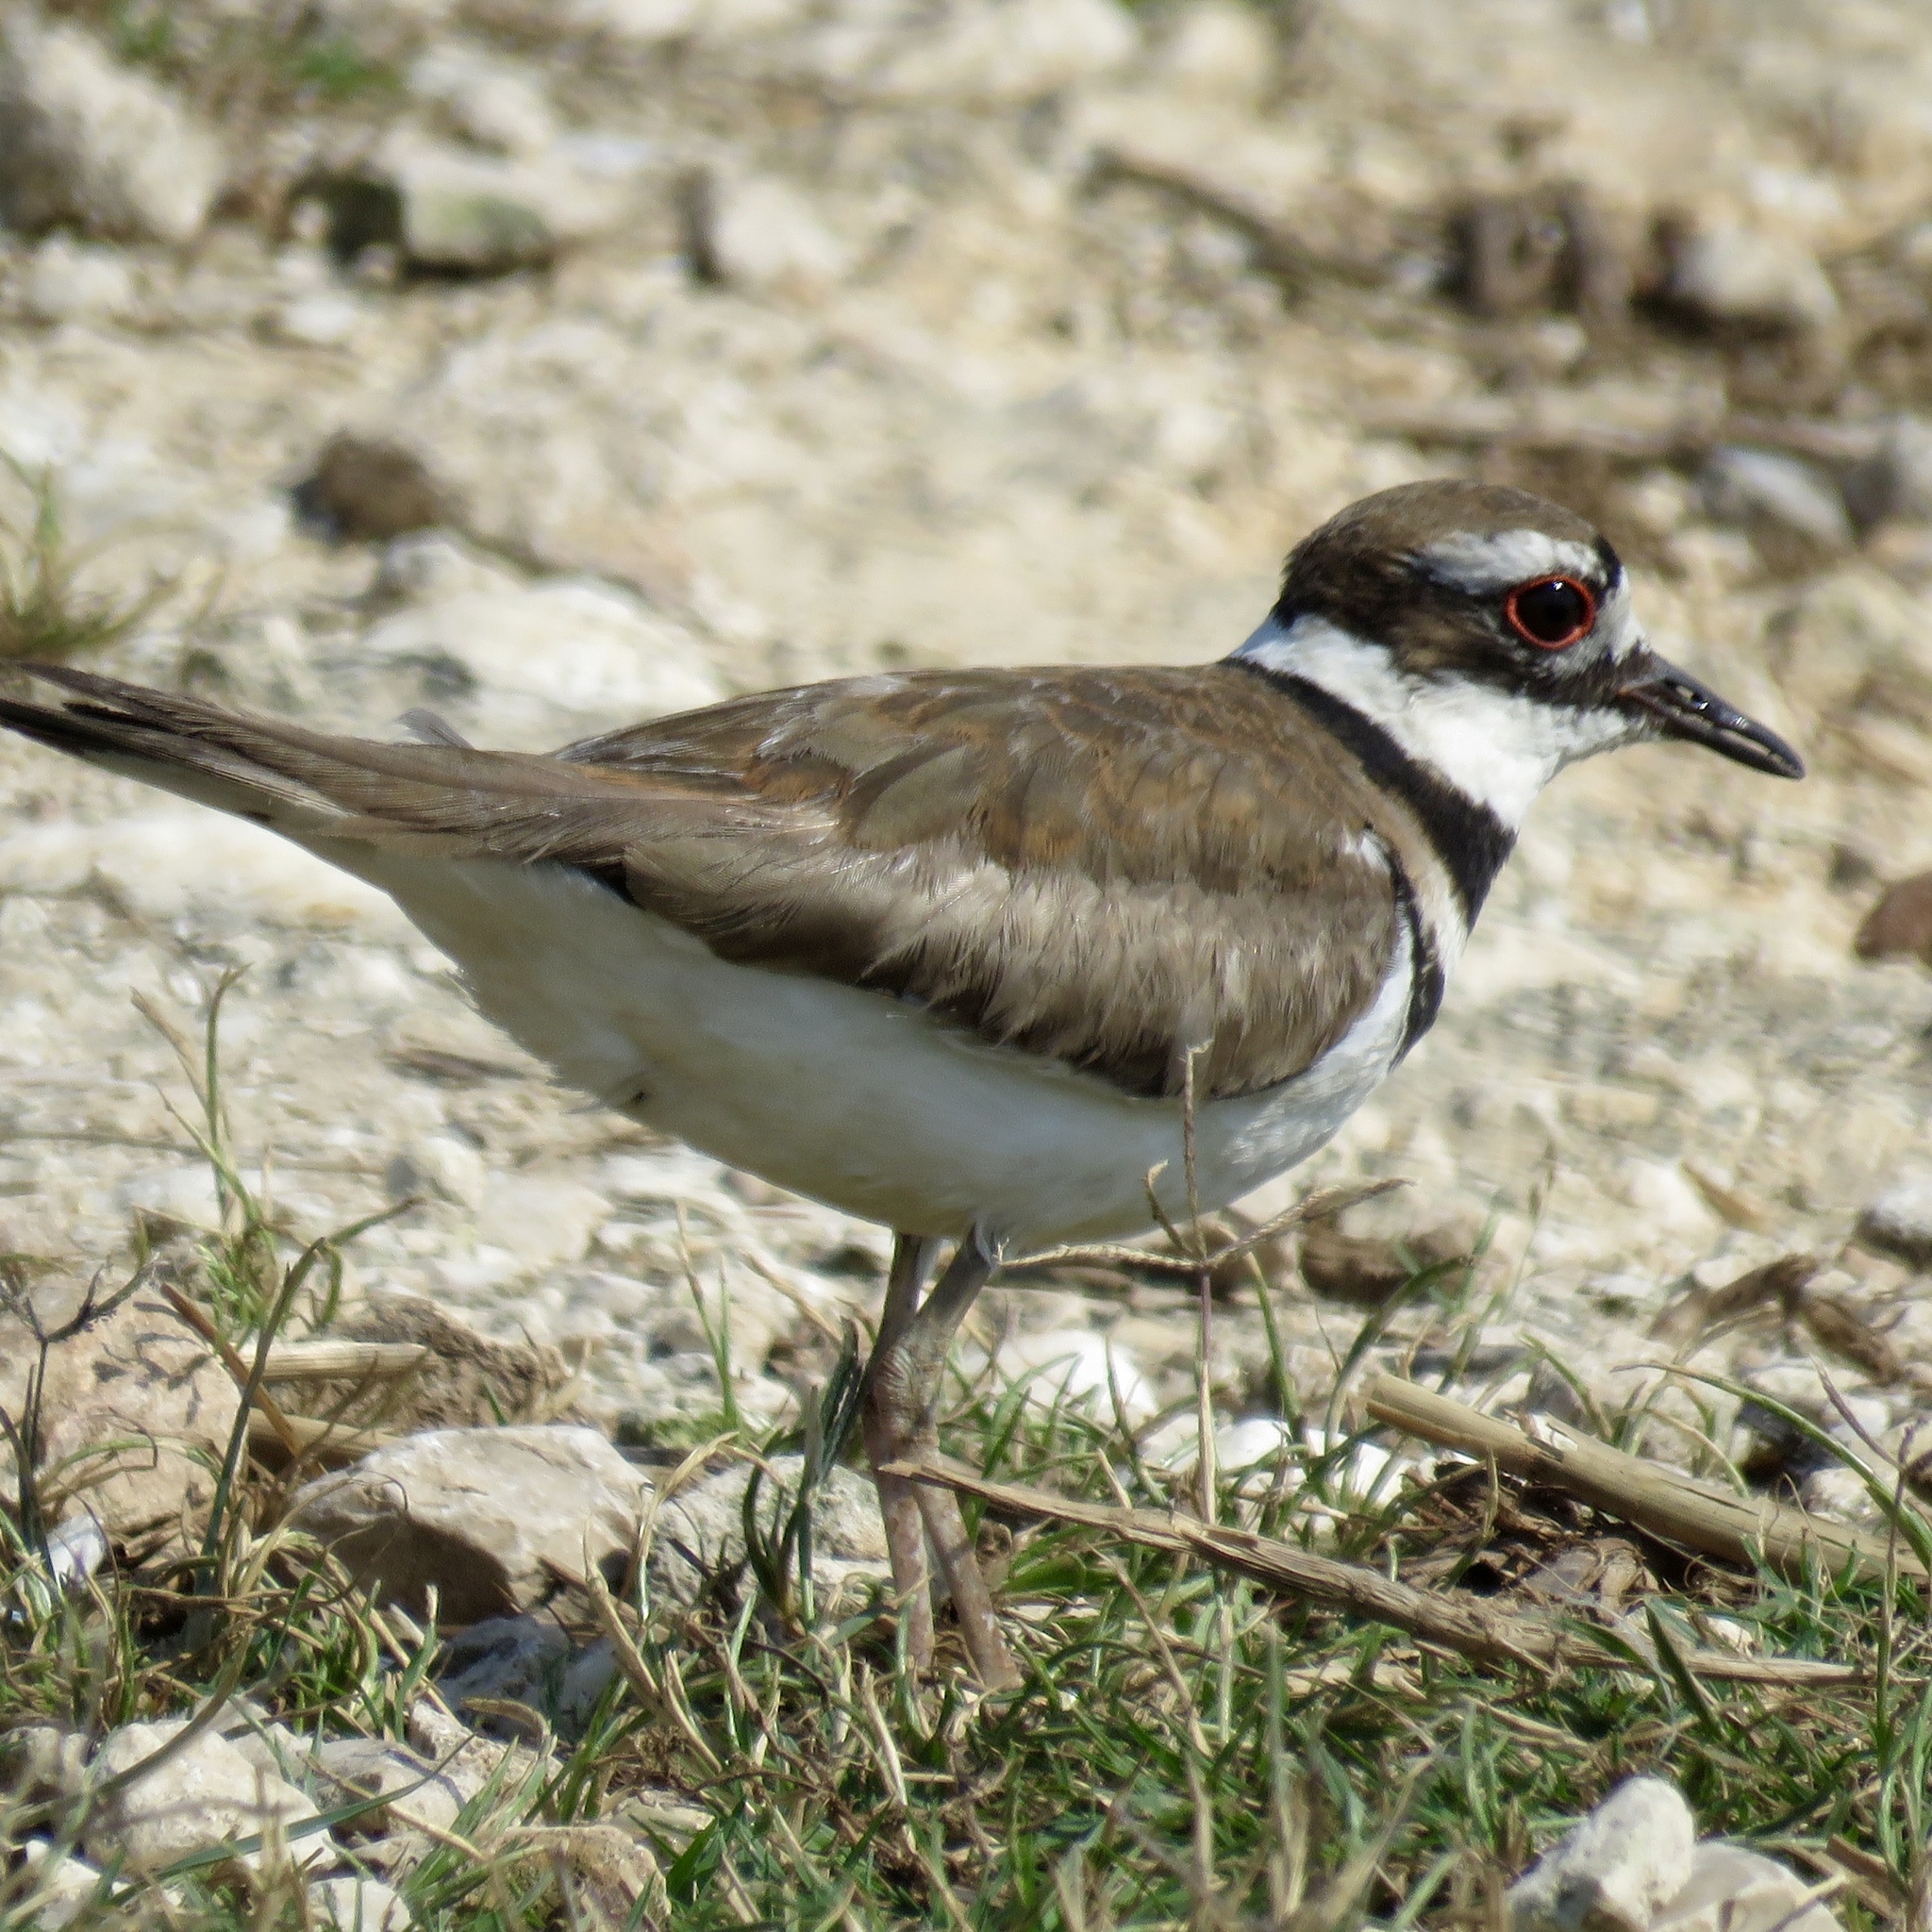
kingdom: Animalia
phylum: Chordata
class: Aves
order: Charadriiformes
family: Charadriidae
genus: Charadrius
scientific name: Charadrius vociferus
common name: Killdeer
